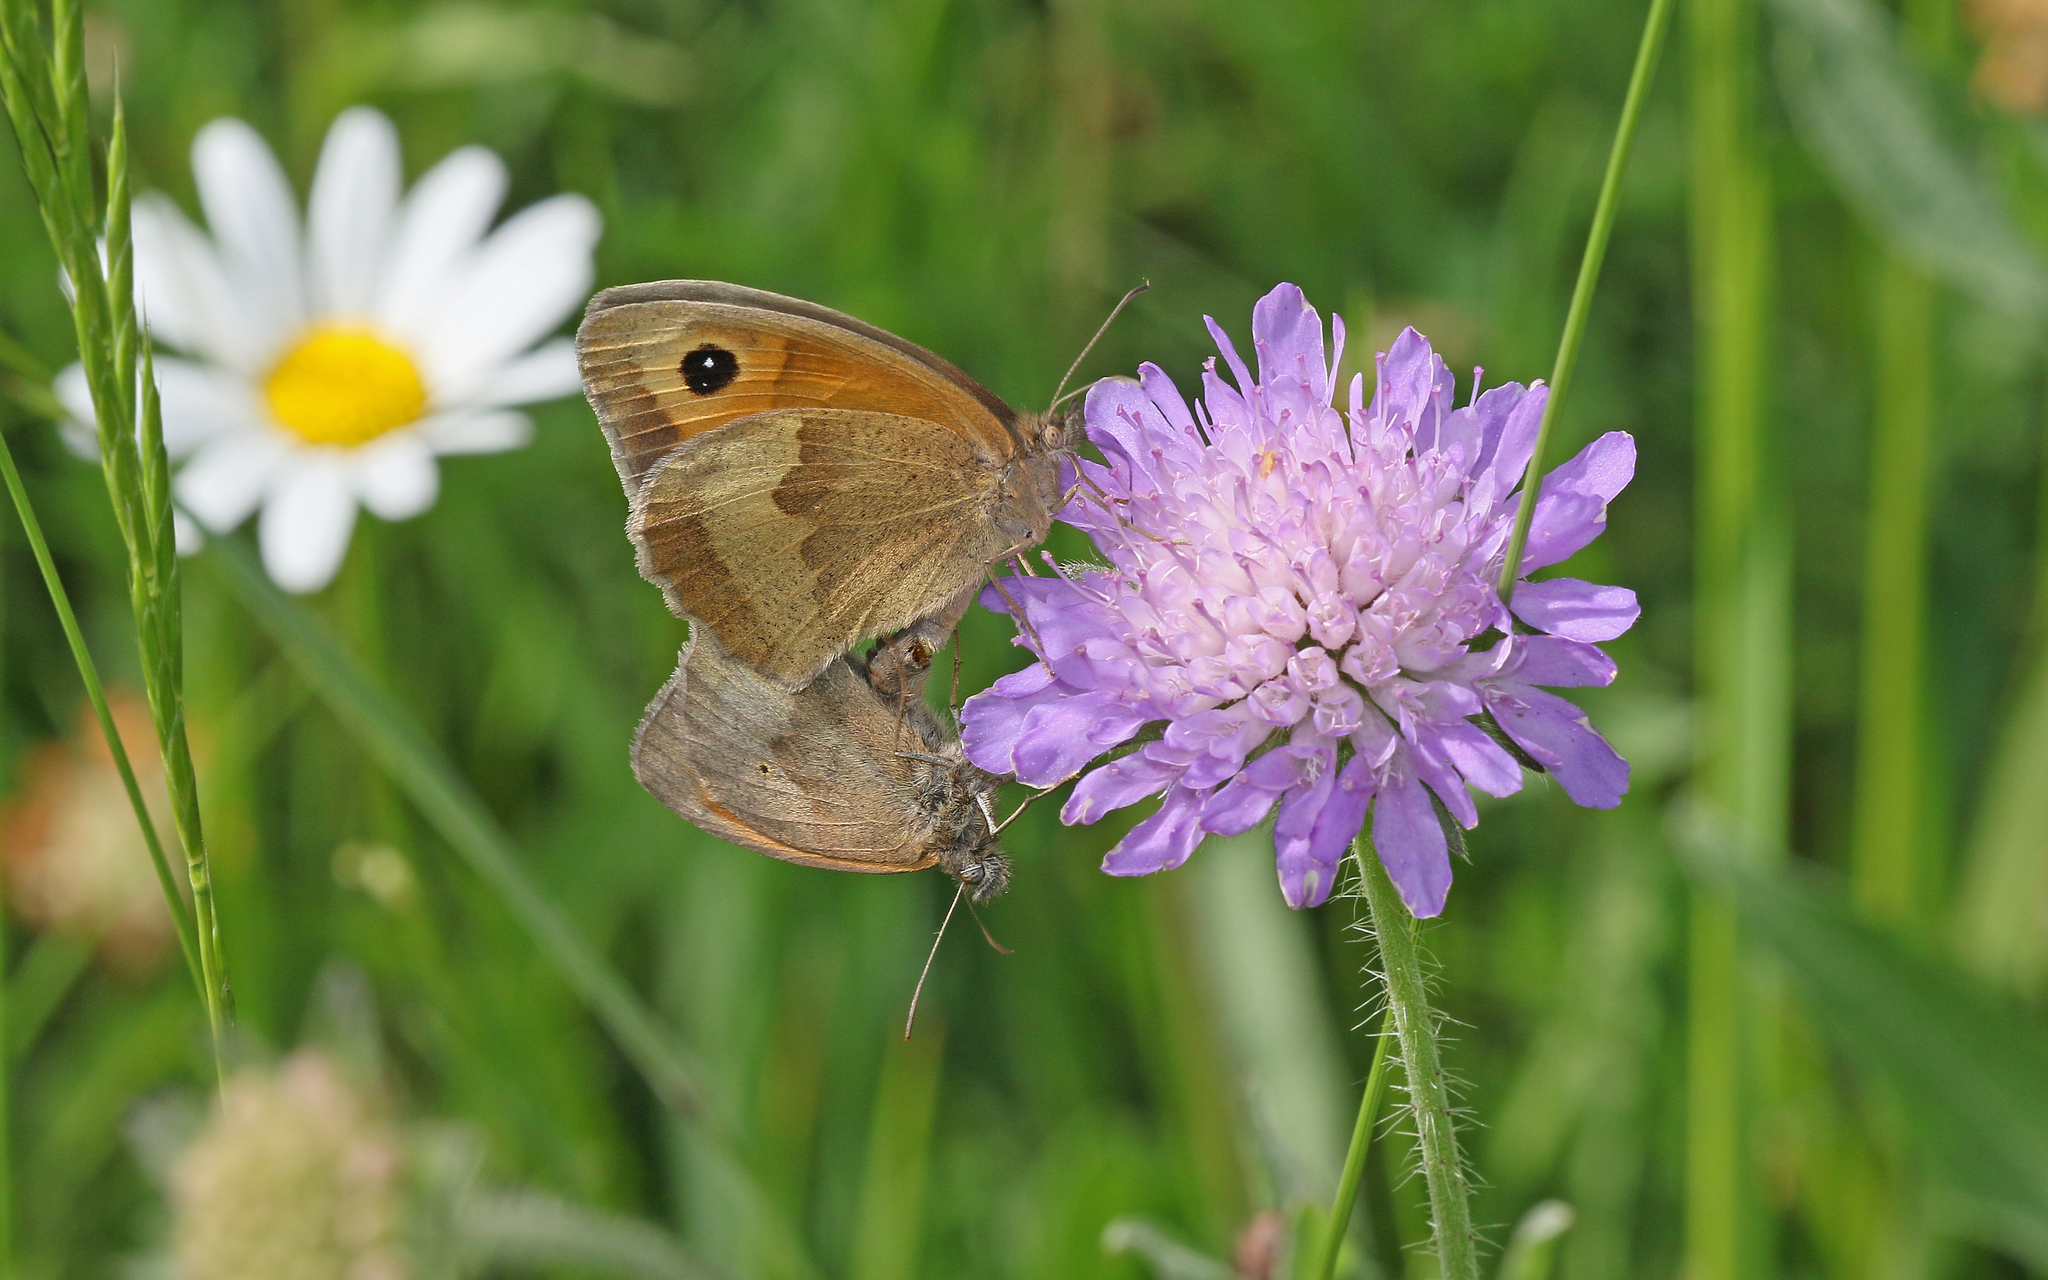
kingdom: Animalia
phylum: Arthropoda
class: Insecta
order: Lepidoptera
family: Nymphalidae
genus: Maniola
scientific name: Maniola jurtina
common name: Meadow brown
